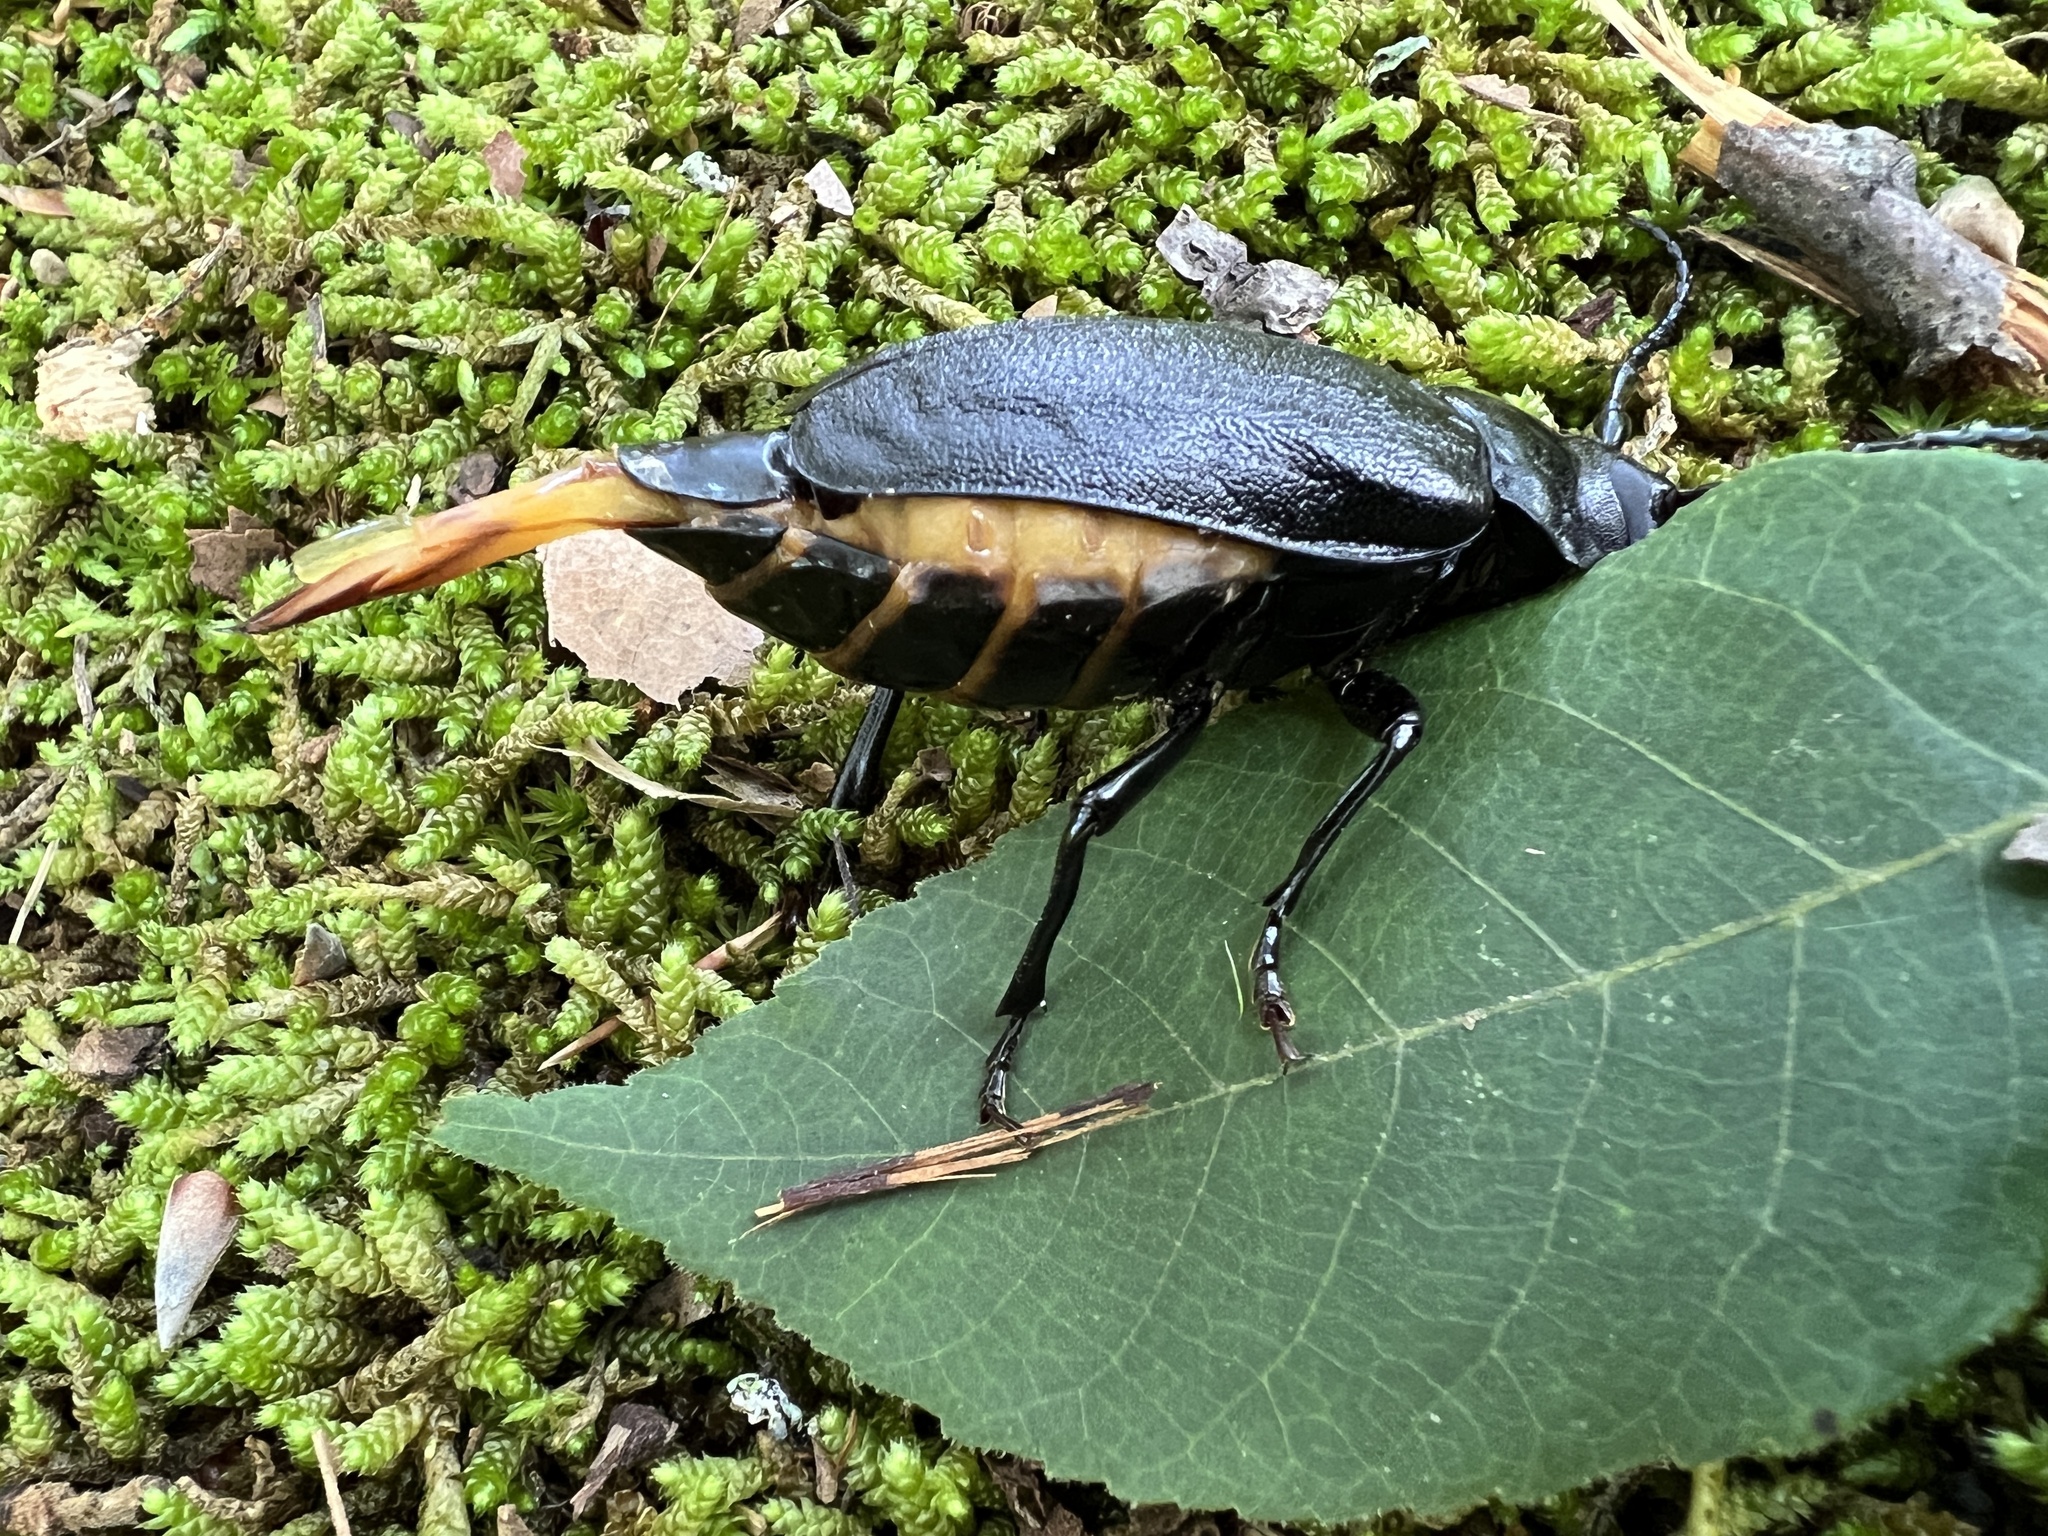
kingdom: Animalia
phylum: Arthropoda
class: Insecta
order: Coleoptera
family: Cerambycidae
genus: Prionus
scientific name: Prionus laticollis
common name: Broad necked prionus
